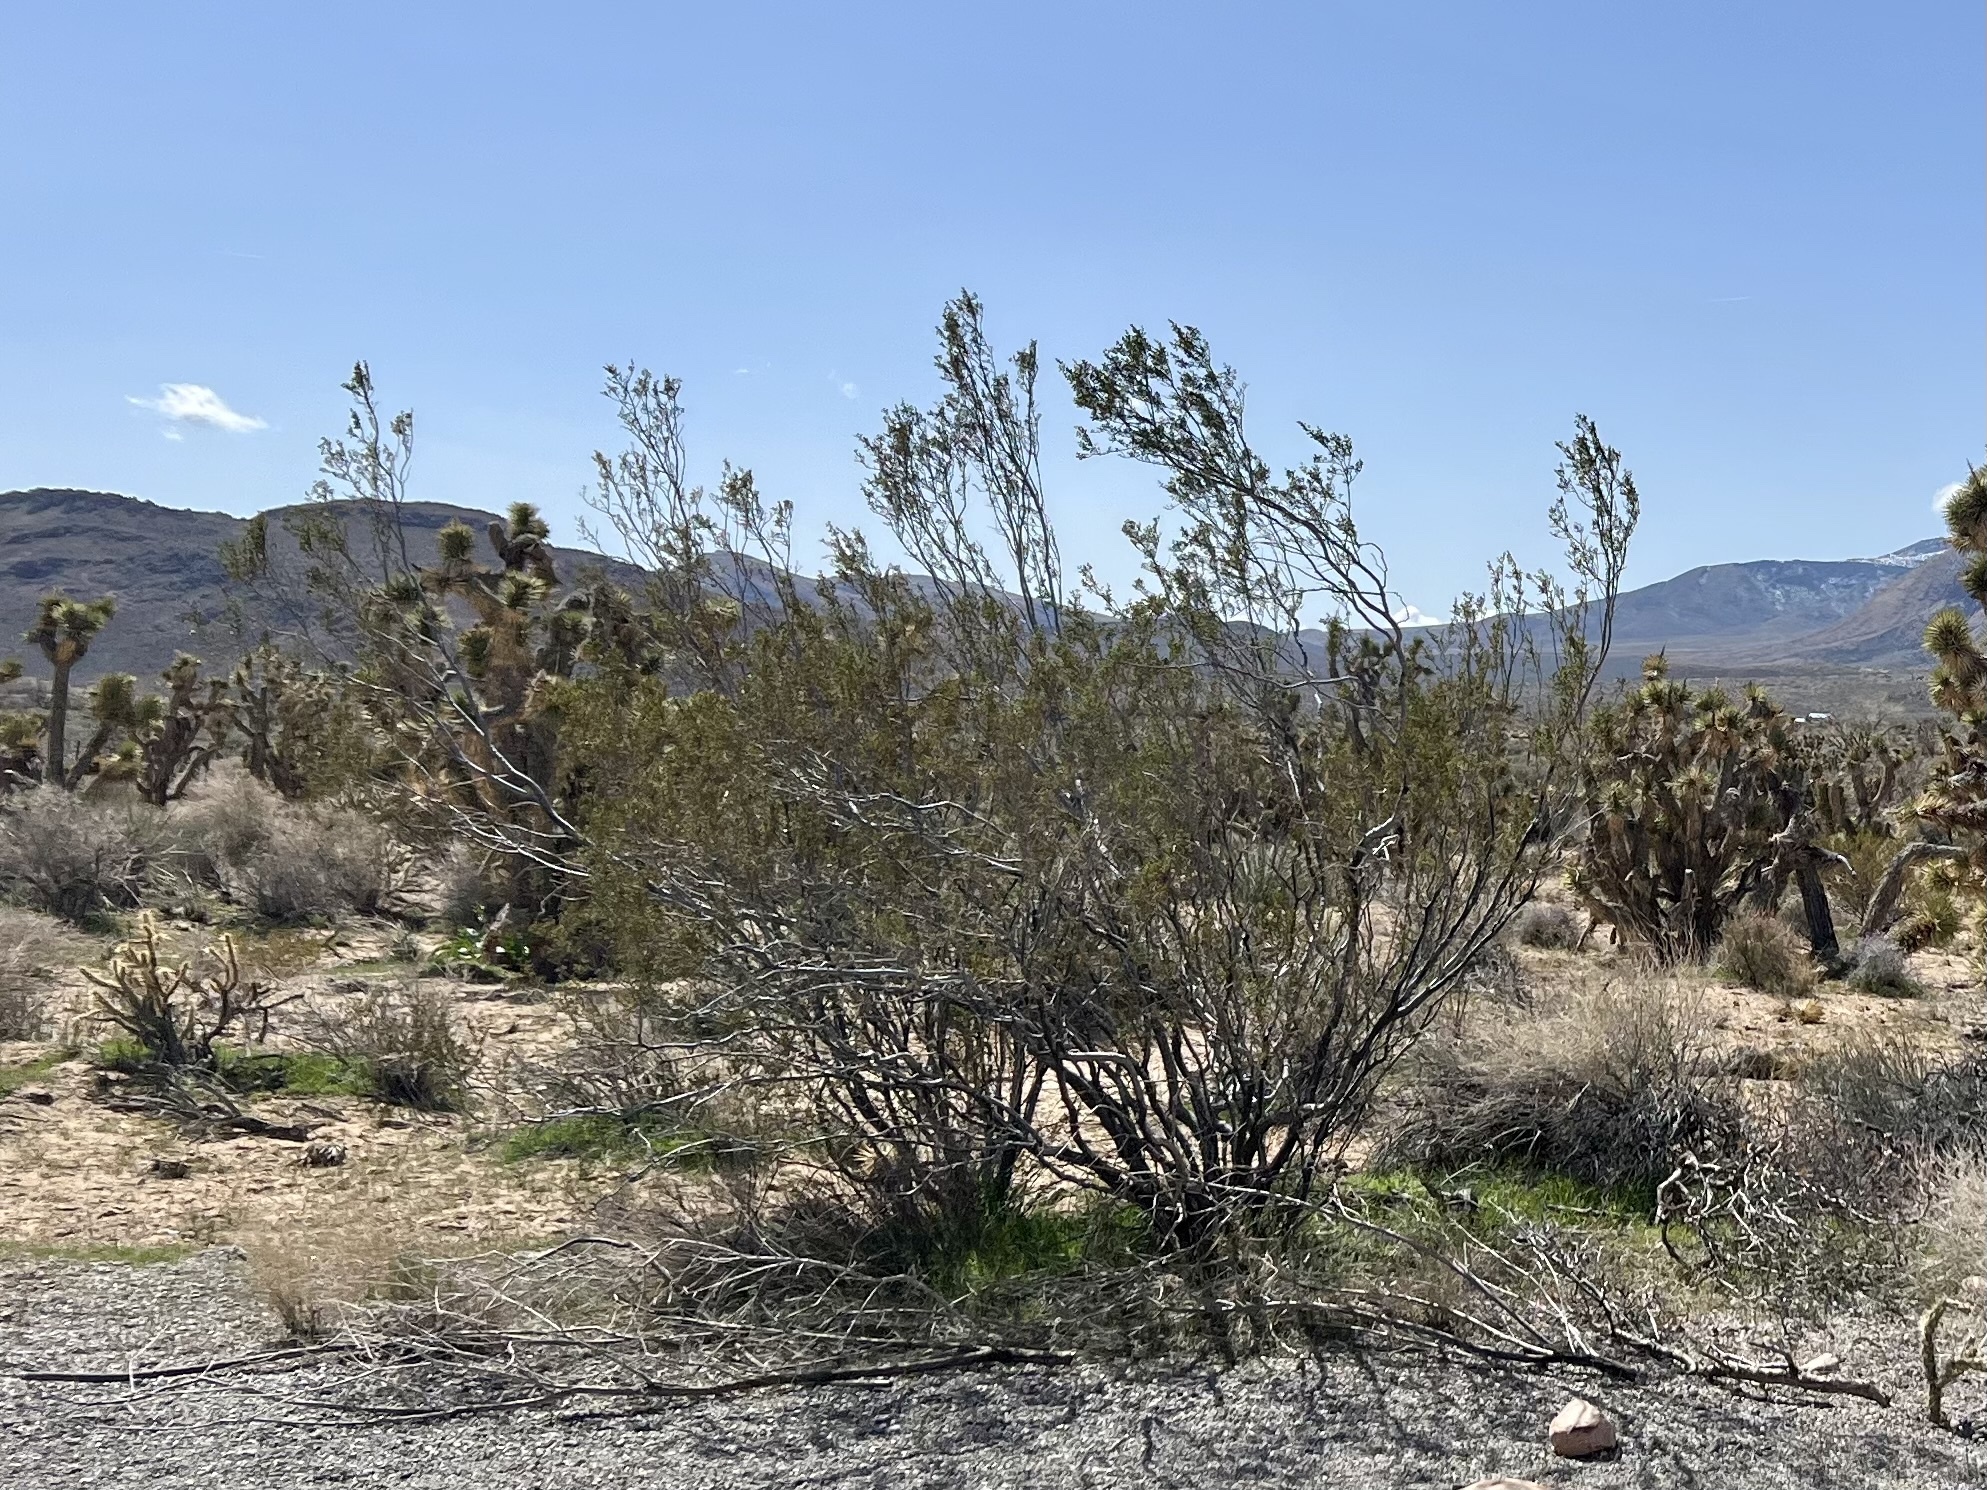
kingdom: Plantae
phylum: Tracheophyta
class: Magnoliopsida
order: Zygophyllales
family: Zygophyllaceae
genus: Larrea
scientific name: Larrea tridentata
